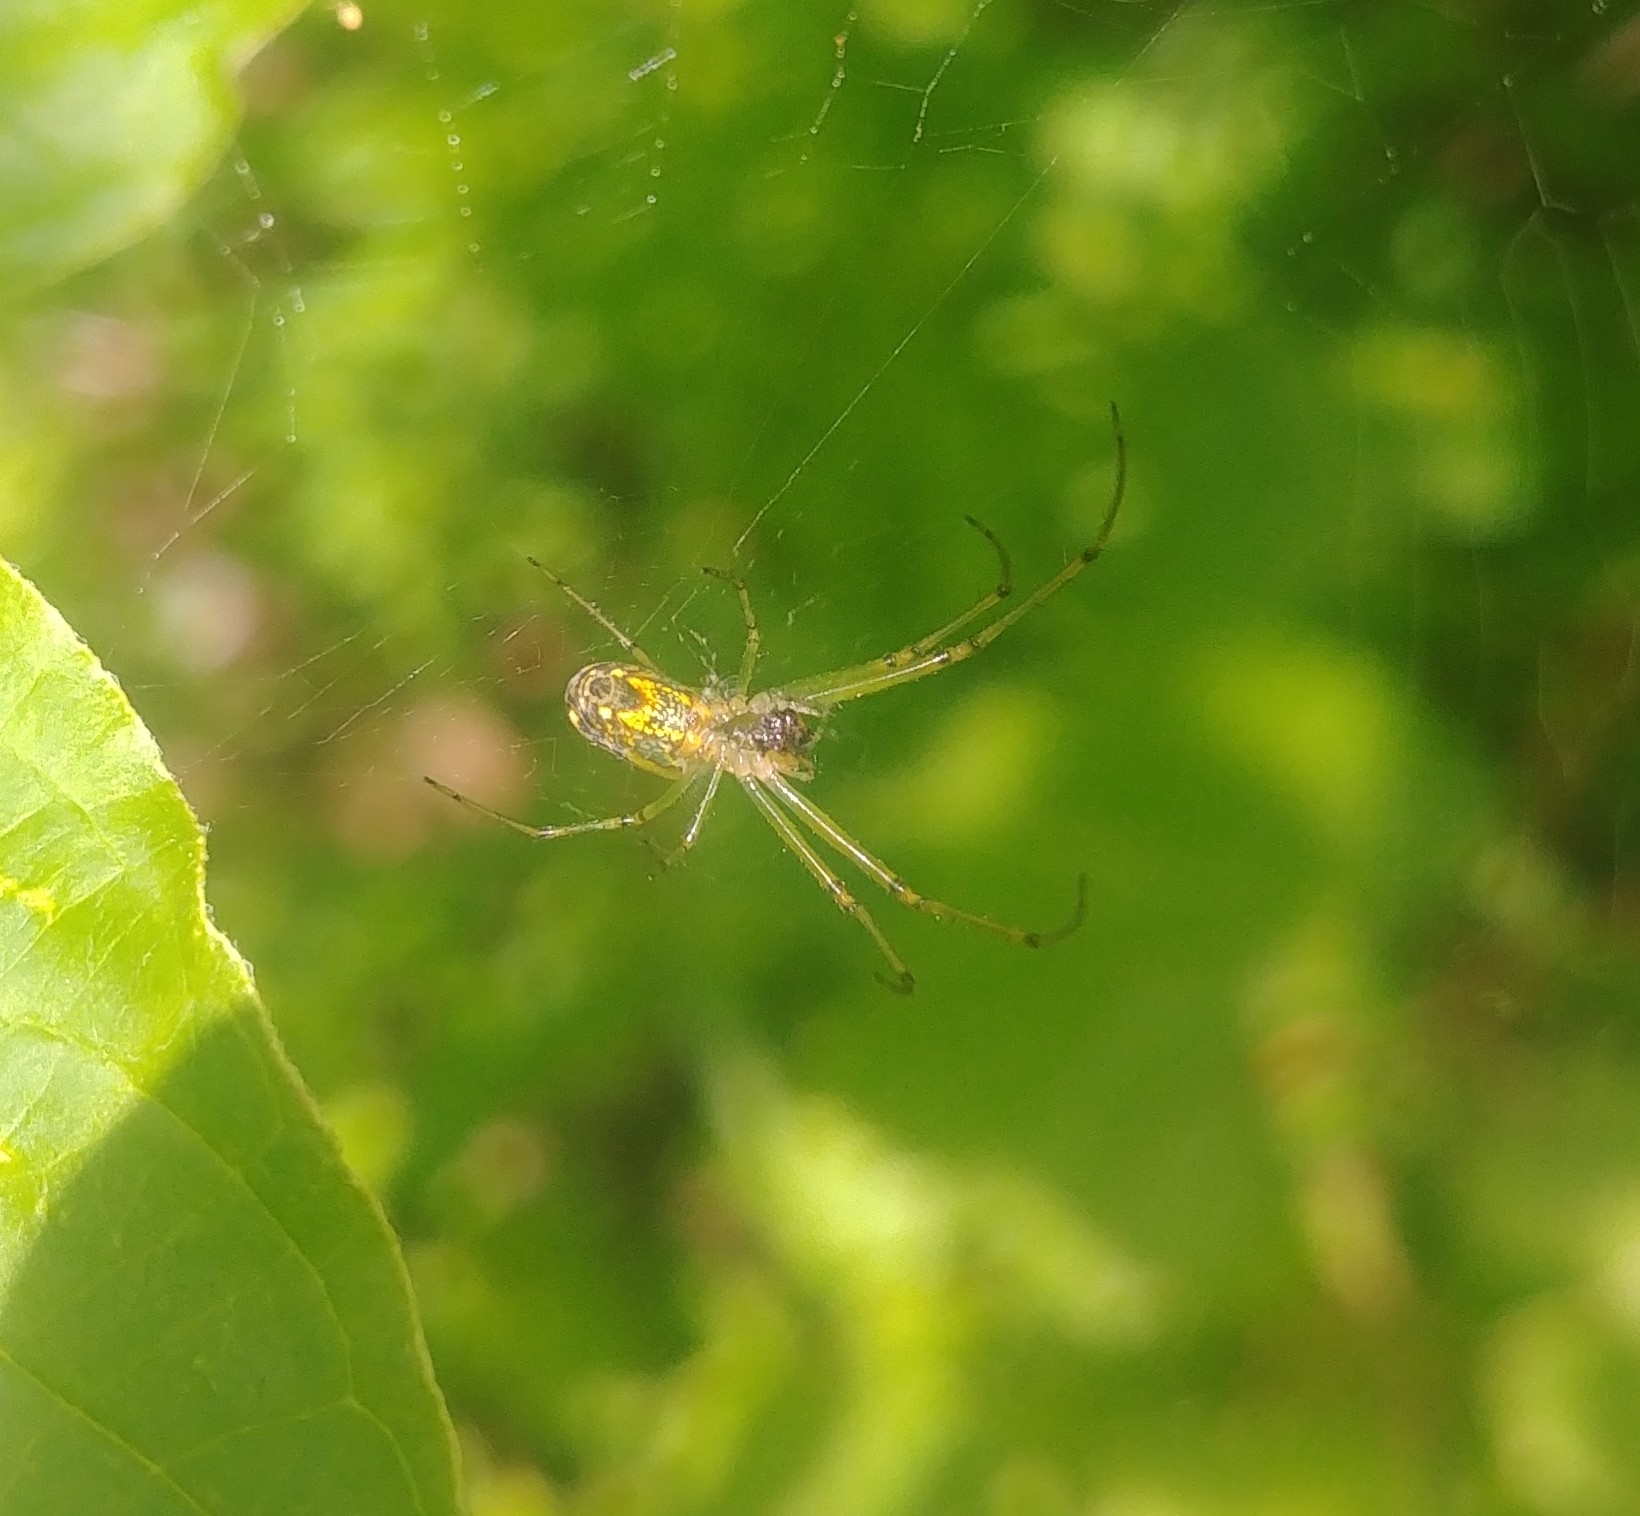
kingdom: Animalia
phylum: Arthropoda
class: Arachnida
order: Araneae
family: Tetragnathidae
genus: Leucauge
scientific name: Leucauge venusta
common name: Longjawed orb weavers
